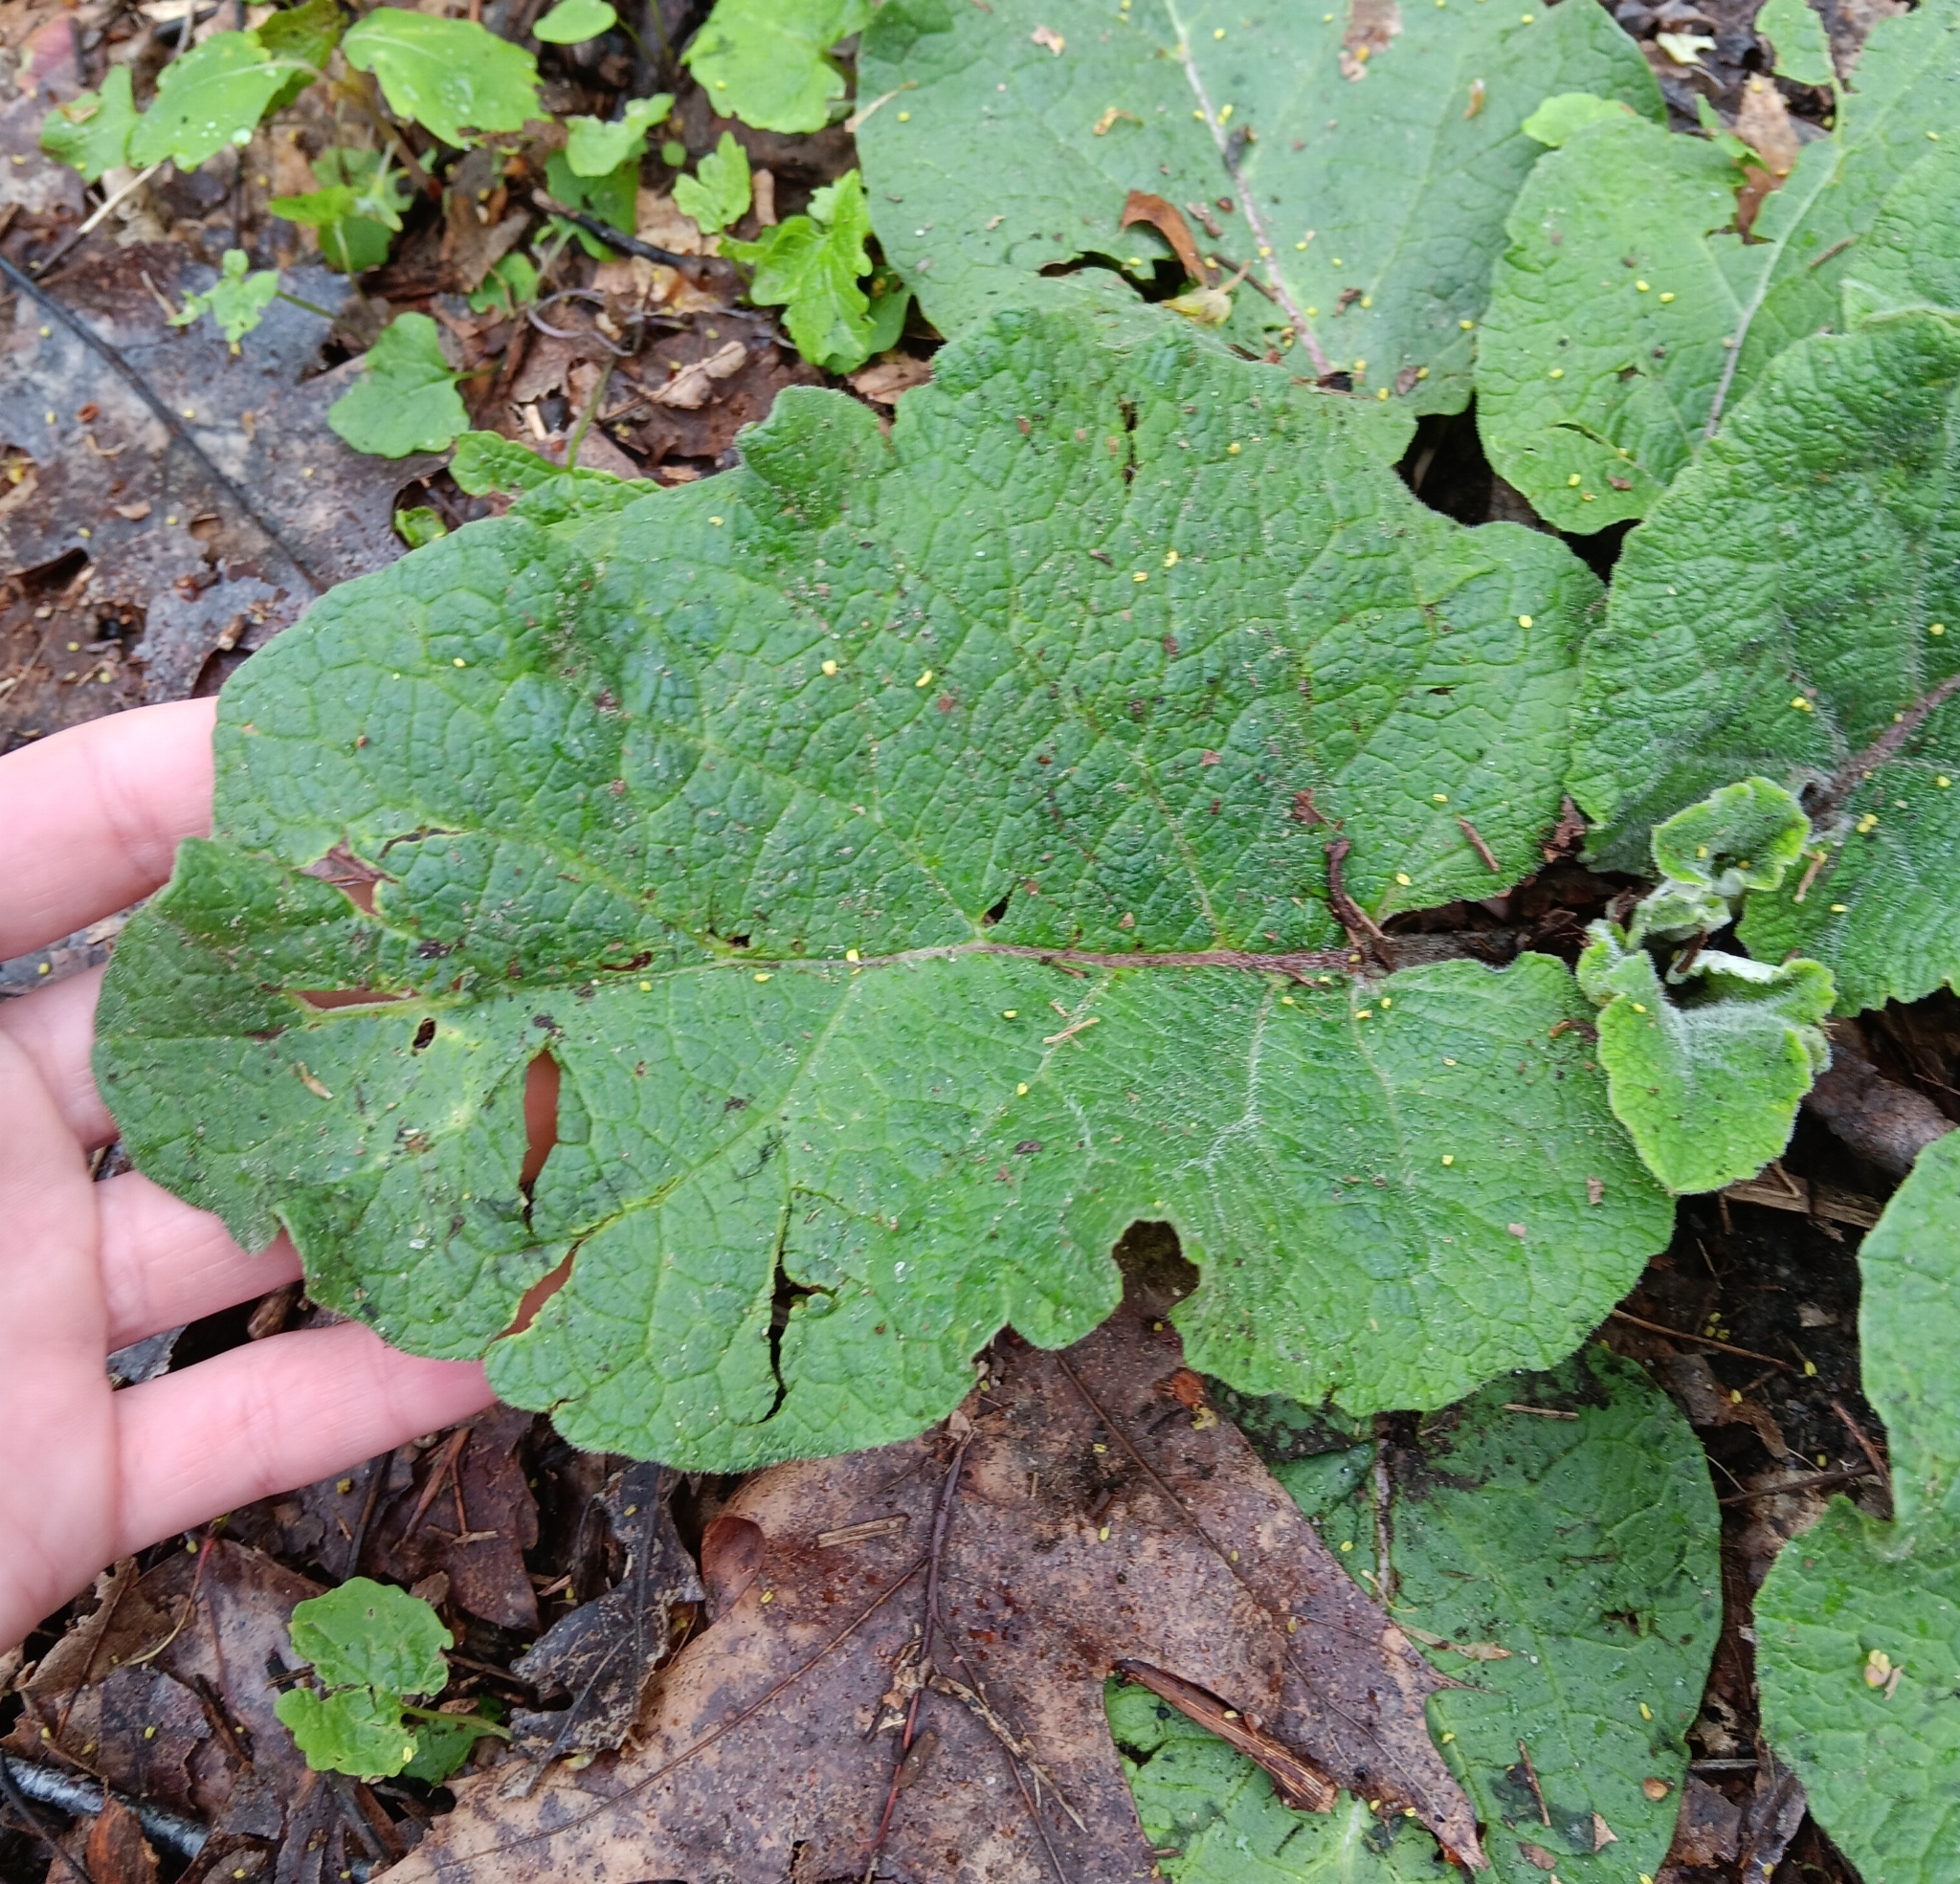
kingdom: Plantae
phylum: Tracheophyta
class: Magnoliopsida
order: Asterales
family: Asteraceae
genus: Arctium
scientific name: Arctium lappa
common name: Greater burdock
